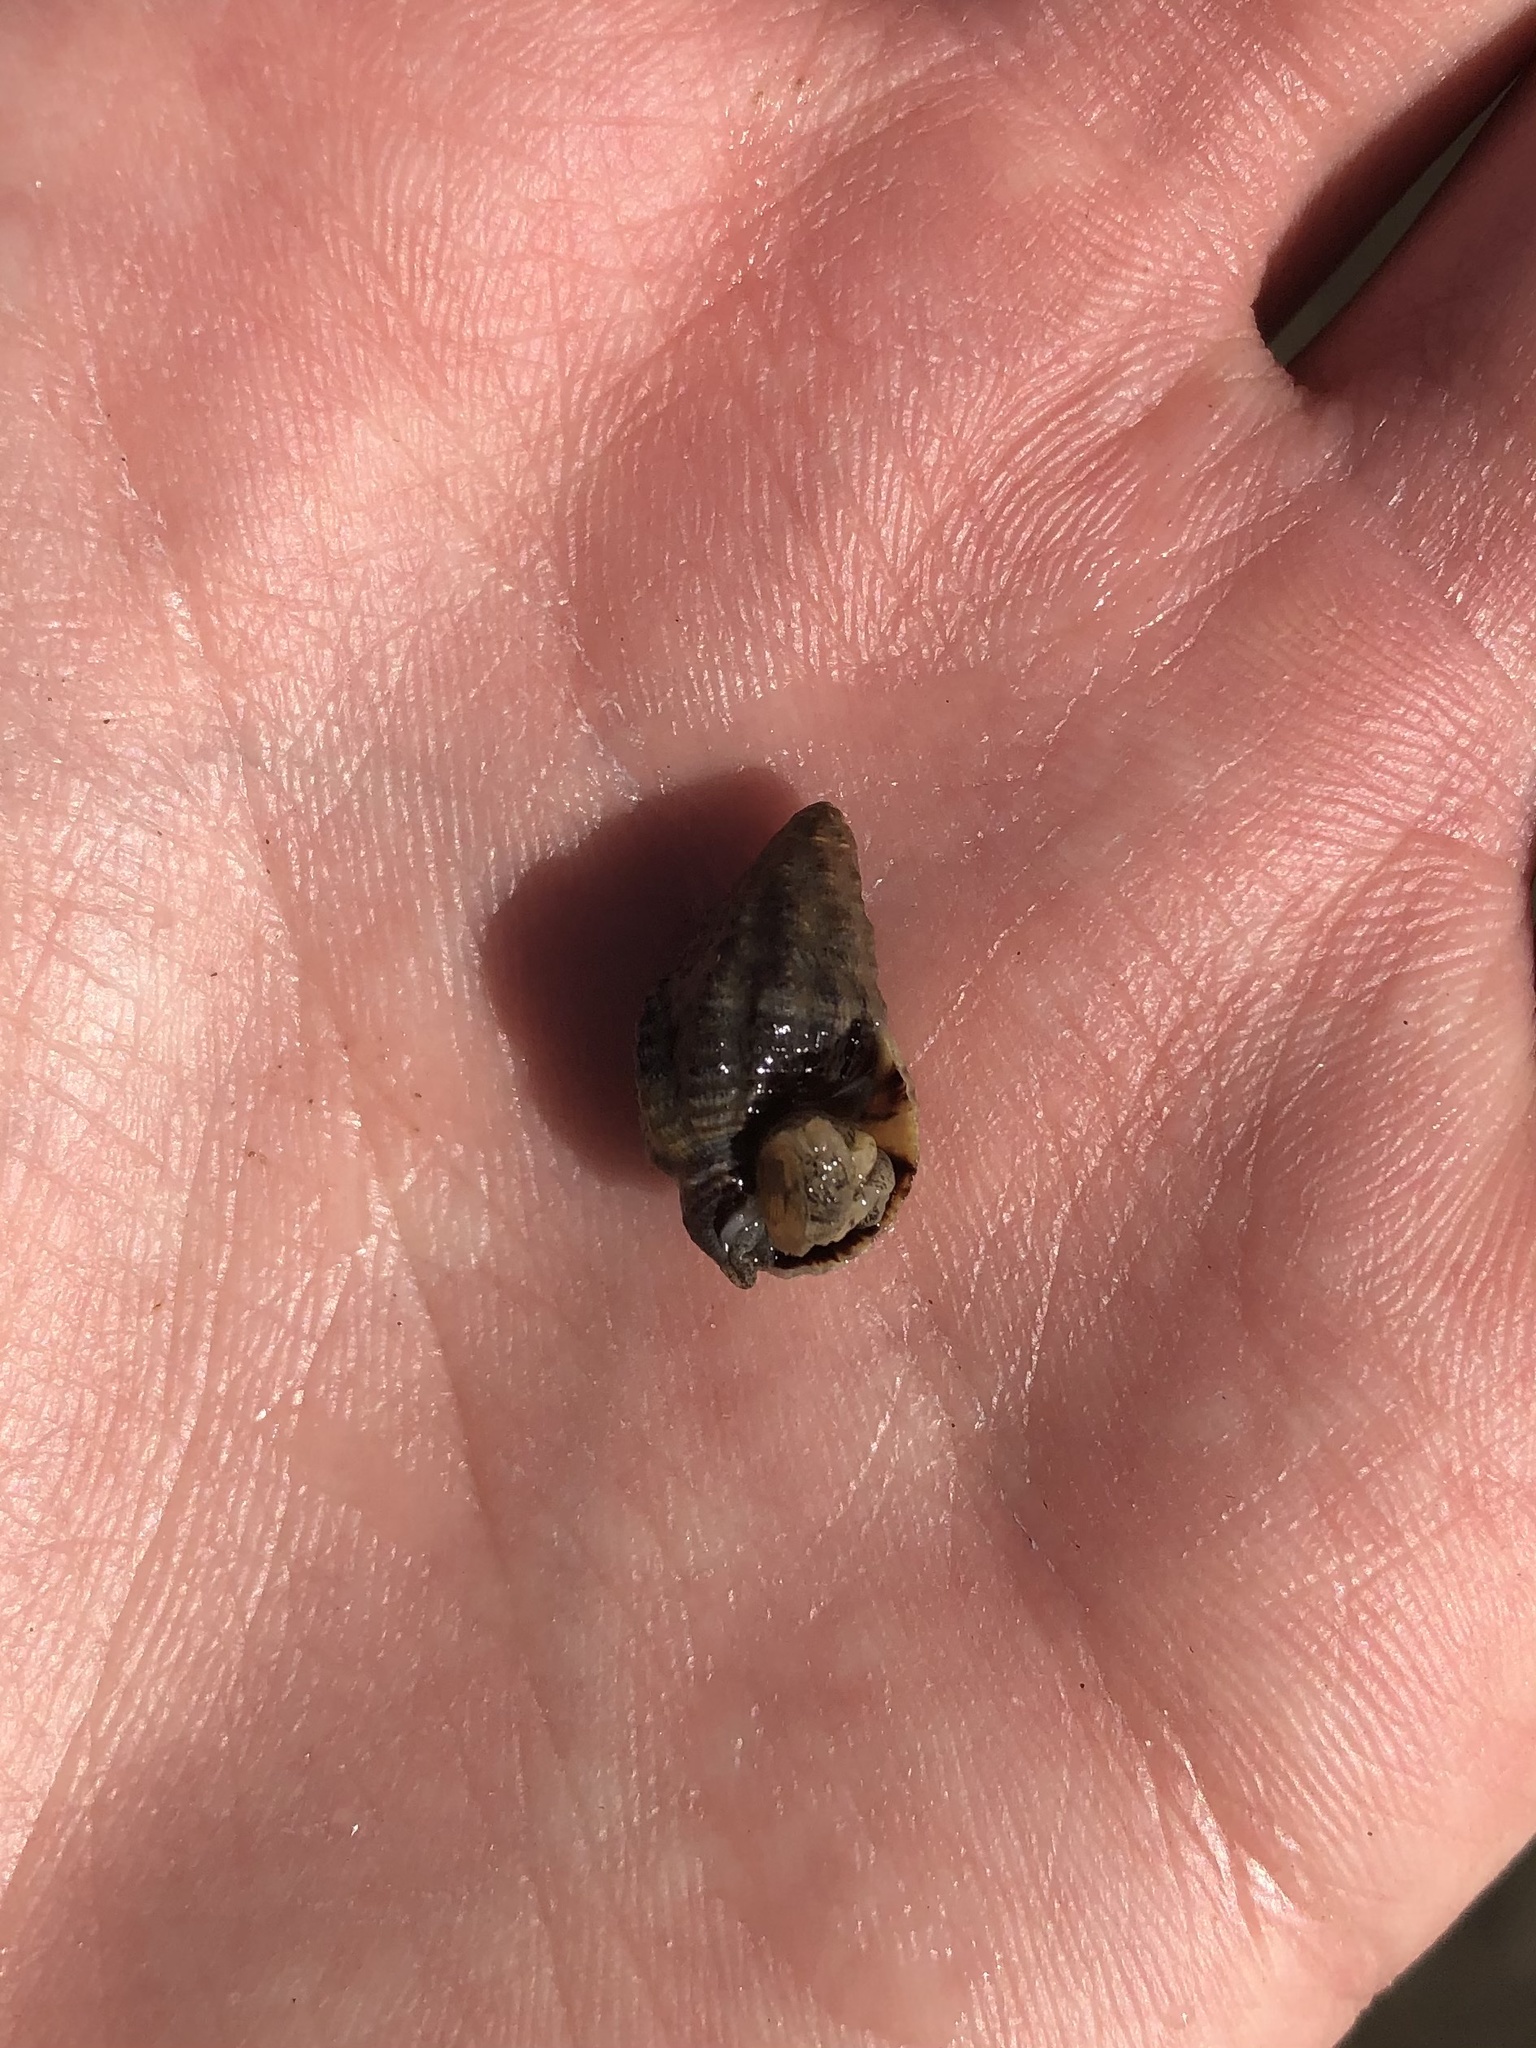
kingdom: Animalia
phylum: Mollusca
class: Gastropoda
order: Neogastropoda
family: Nassariidae
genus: Phrontis
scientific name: Phrontis vibex
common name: Bruised nassa
